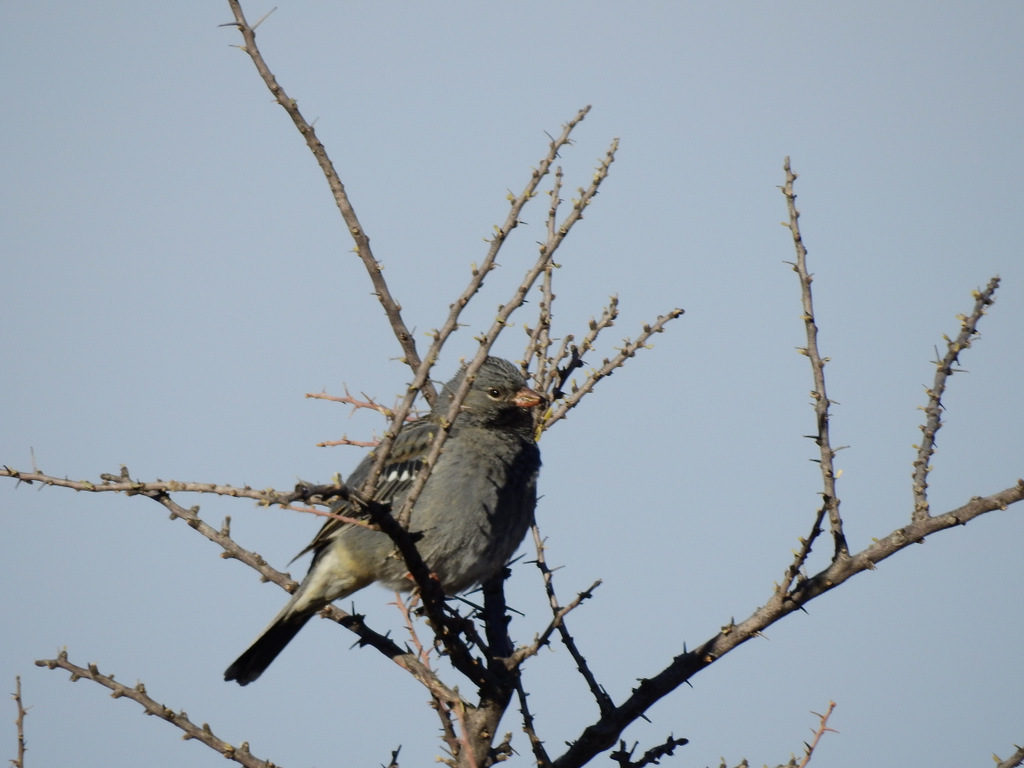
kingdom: Animalia
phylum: Chordata
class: Aves
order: Passeriformes
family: Thraupidae
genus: Rhopospina
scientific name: Rhopospina fruticeti
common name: Mourning sierra finch
